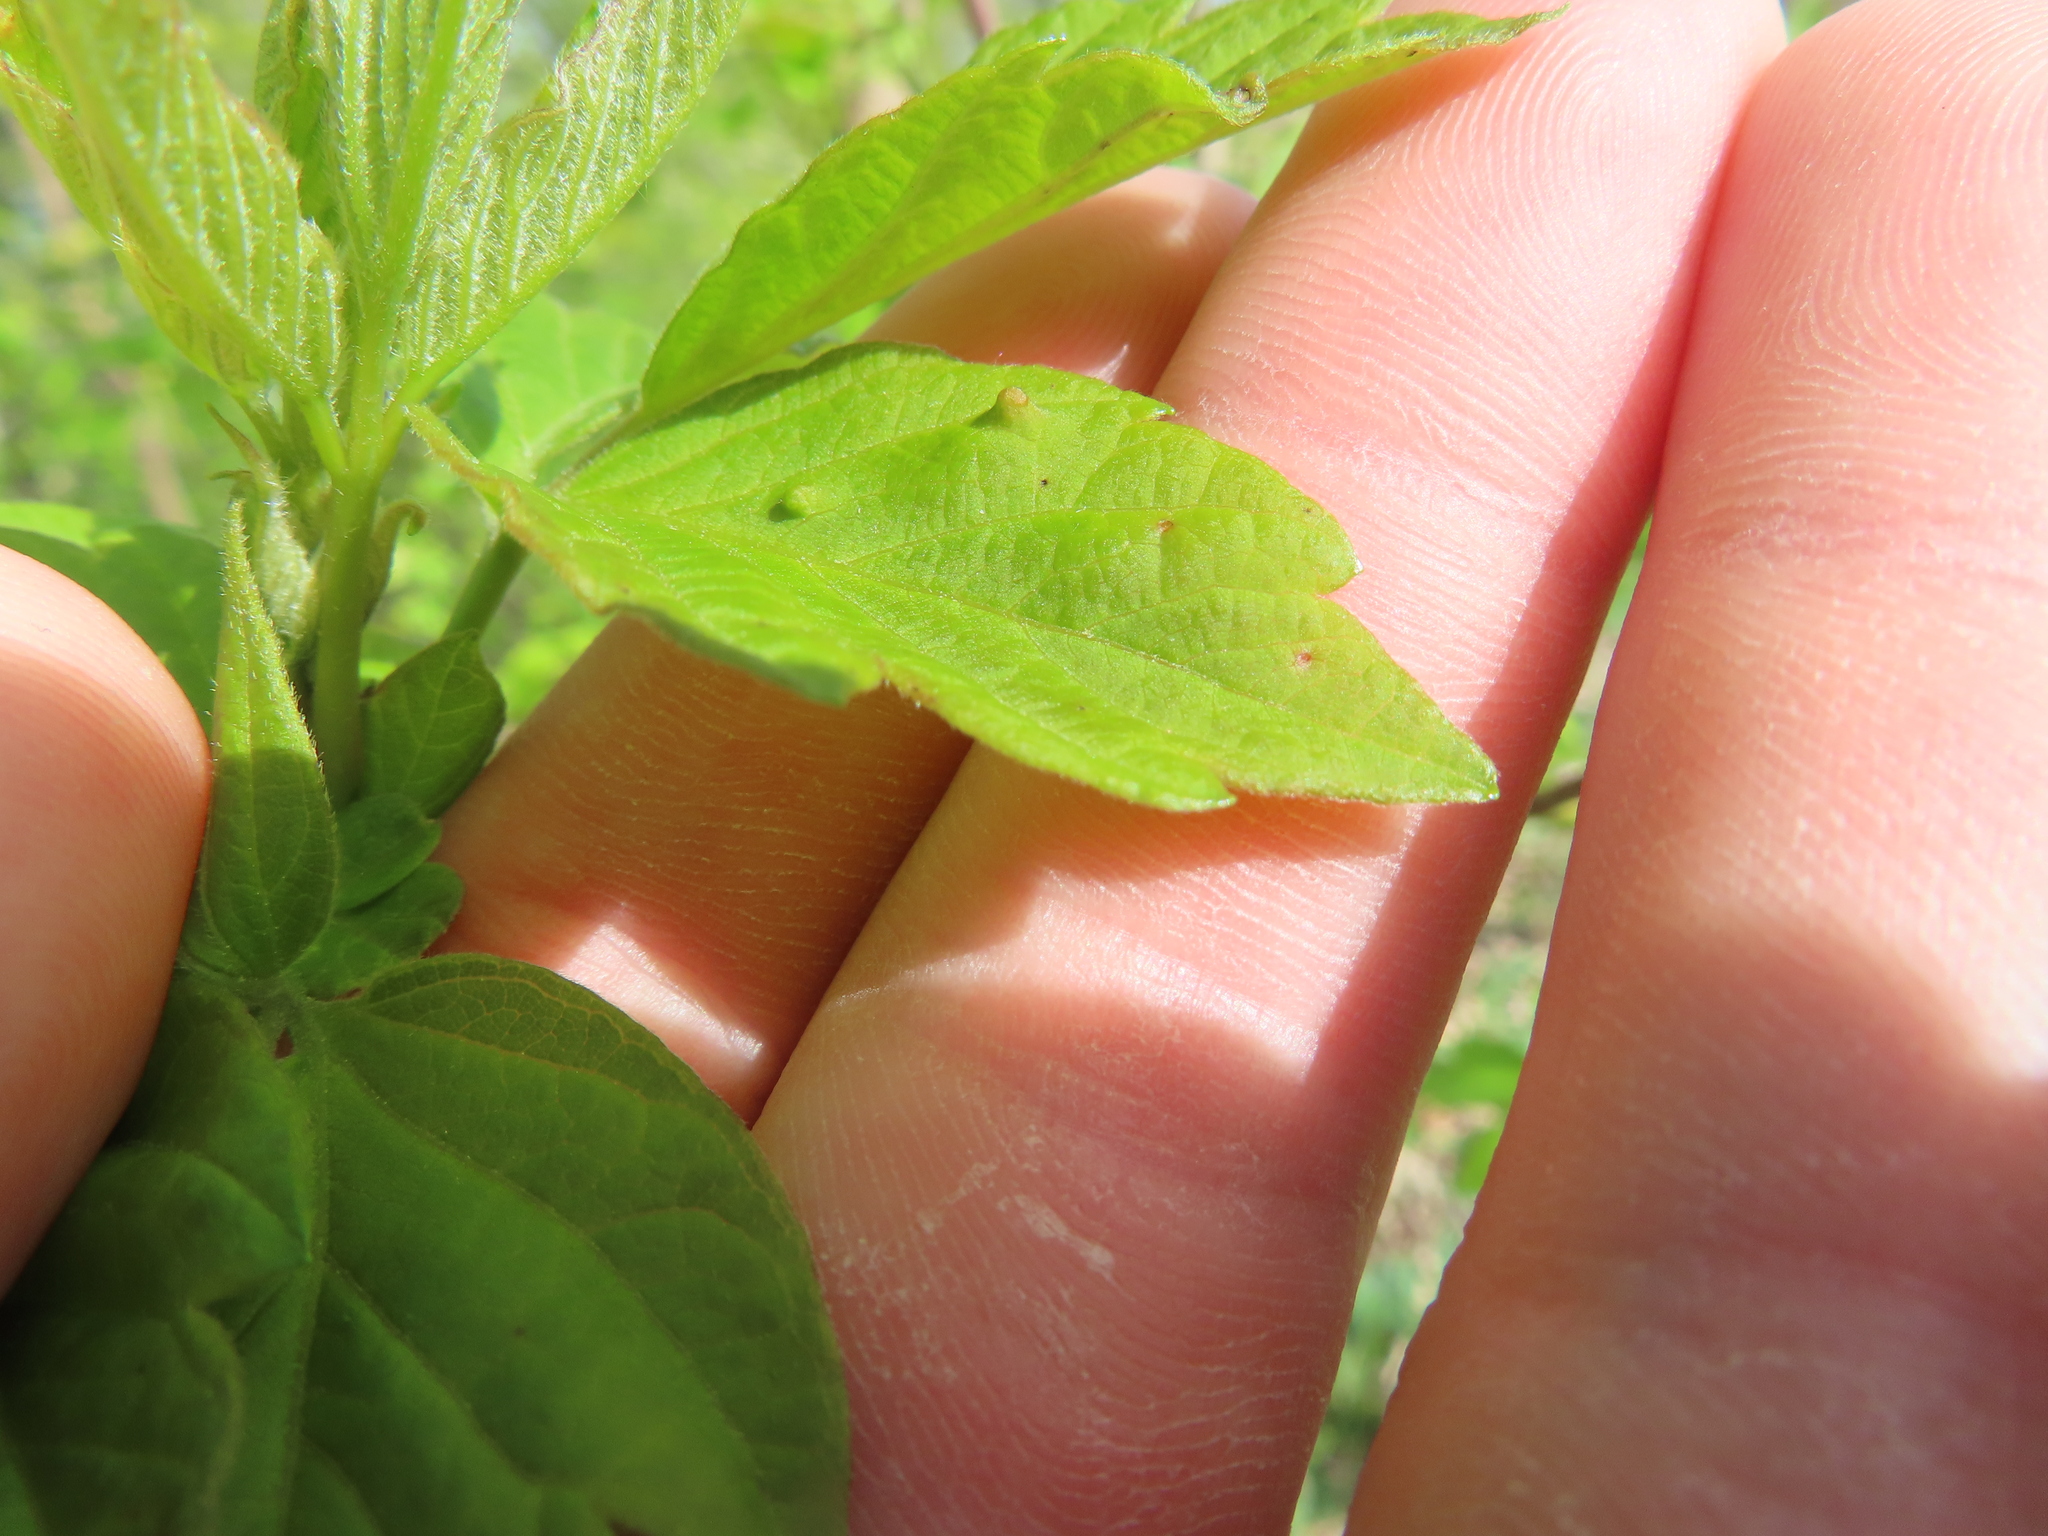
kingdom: Animalia
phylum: Arthropoda
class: Arachnida
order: Trombidiformes
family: Eriophyidae
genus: Aceria
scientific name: Aceria
